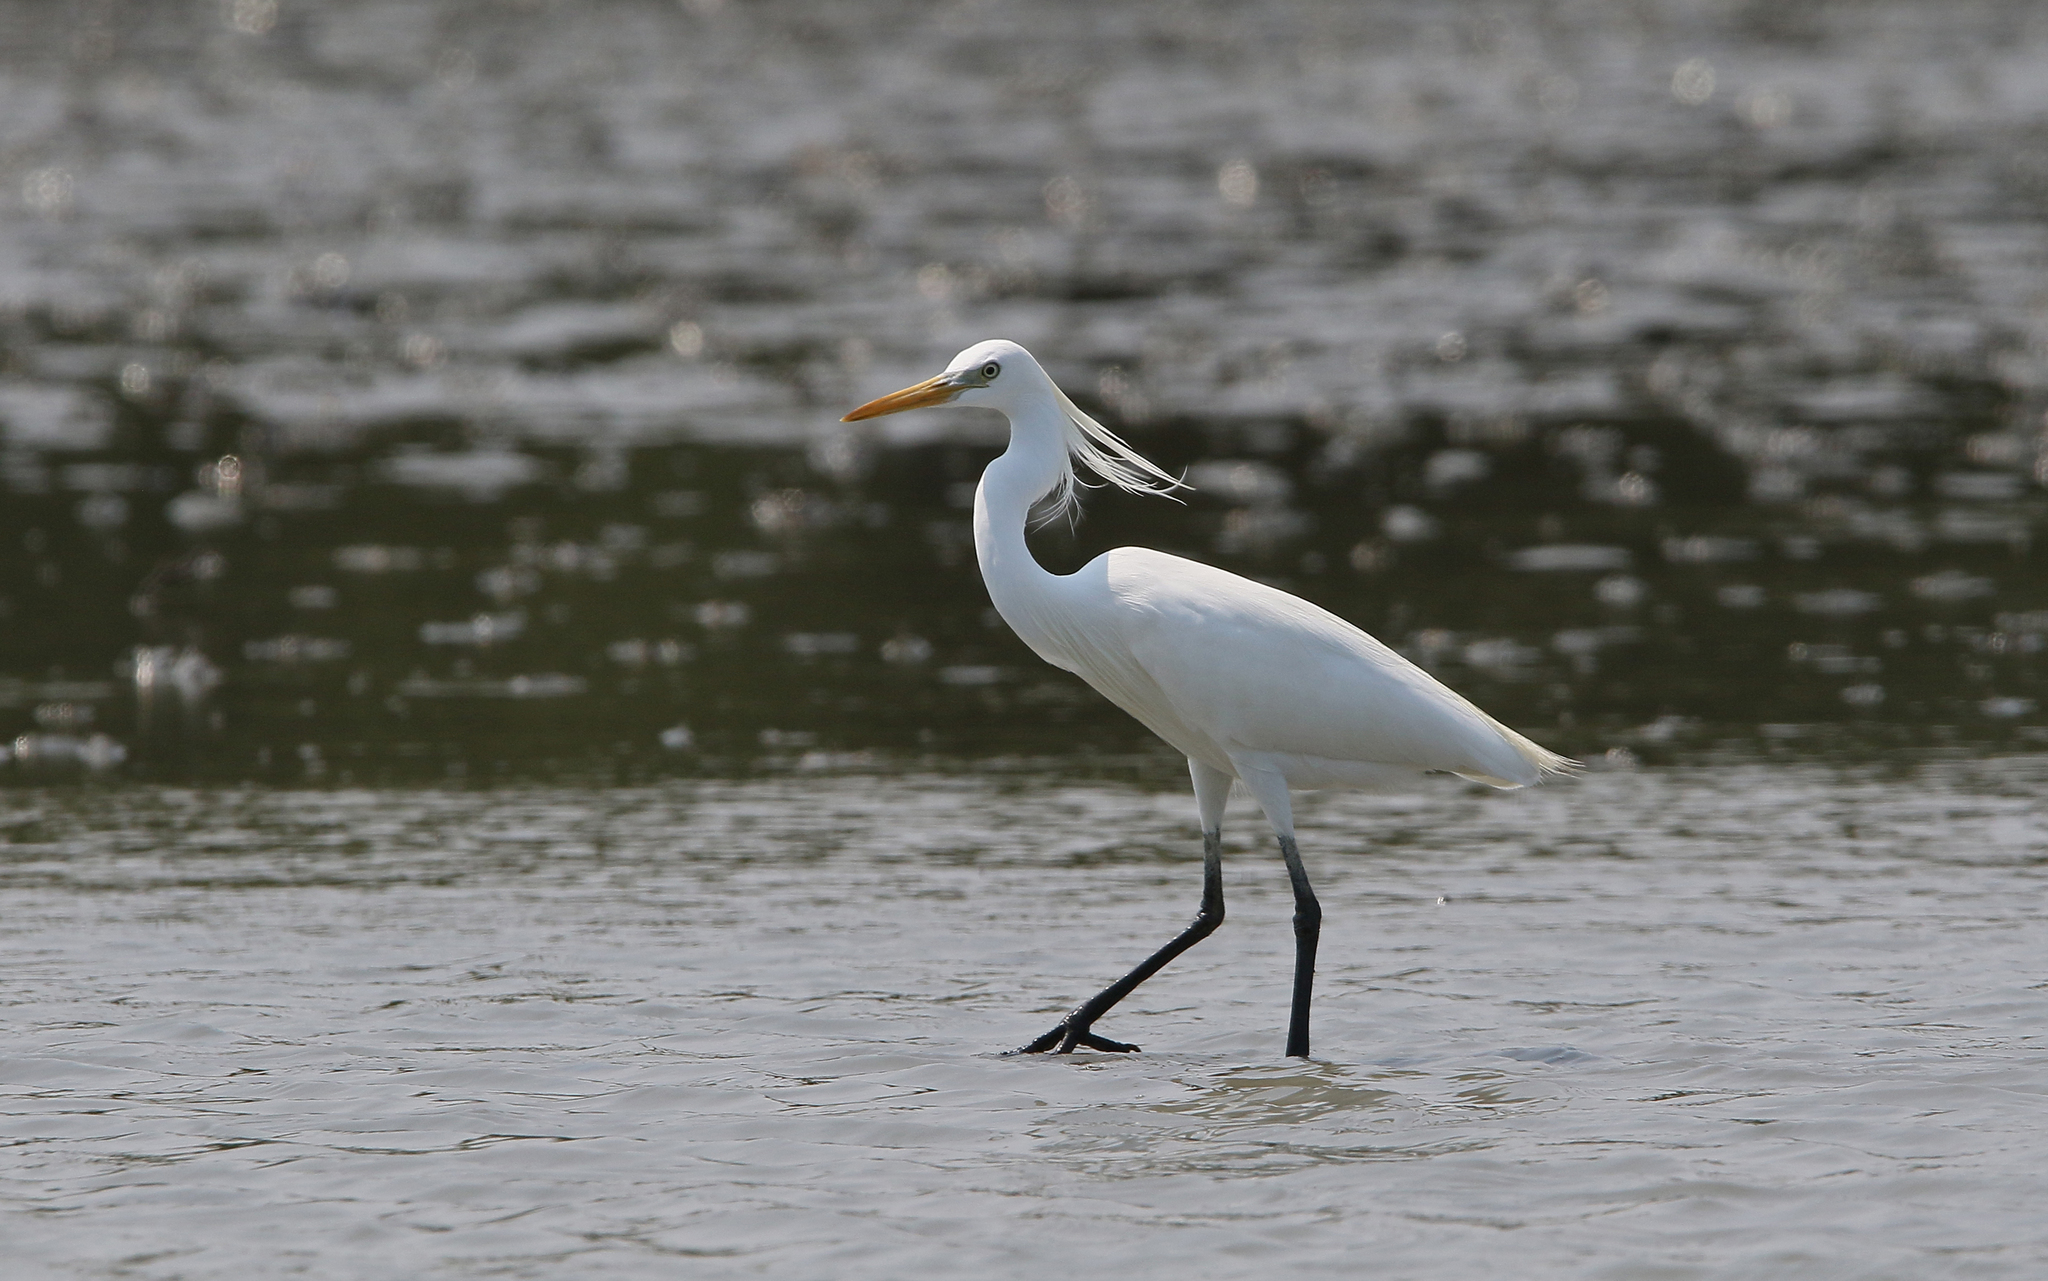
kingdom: Animalia
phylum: Chordata
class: Aves
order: Pelecaniformes
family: Ardeidae
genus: Egretta
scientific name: Egretta eulophotes
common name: Chinese egret
